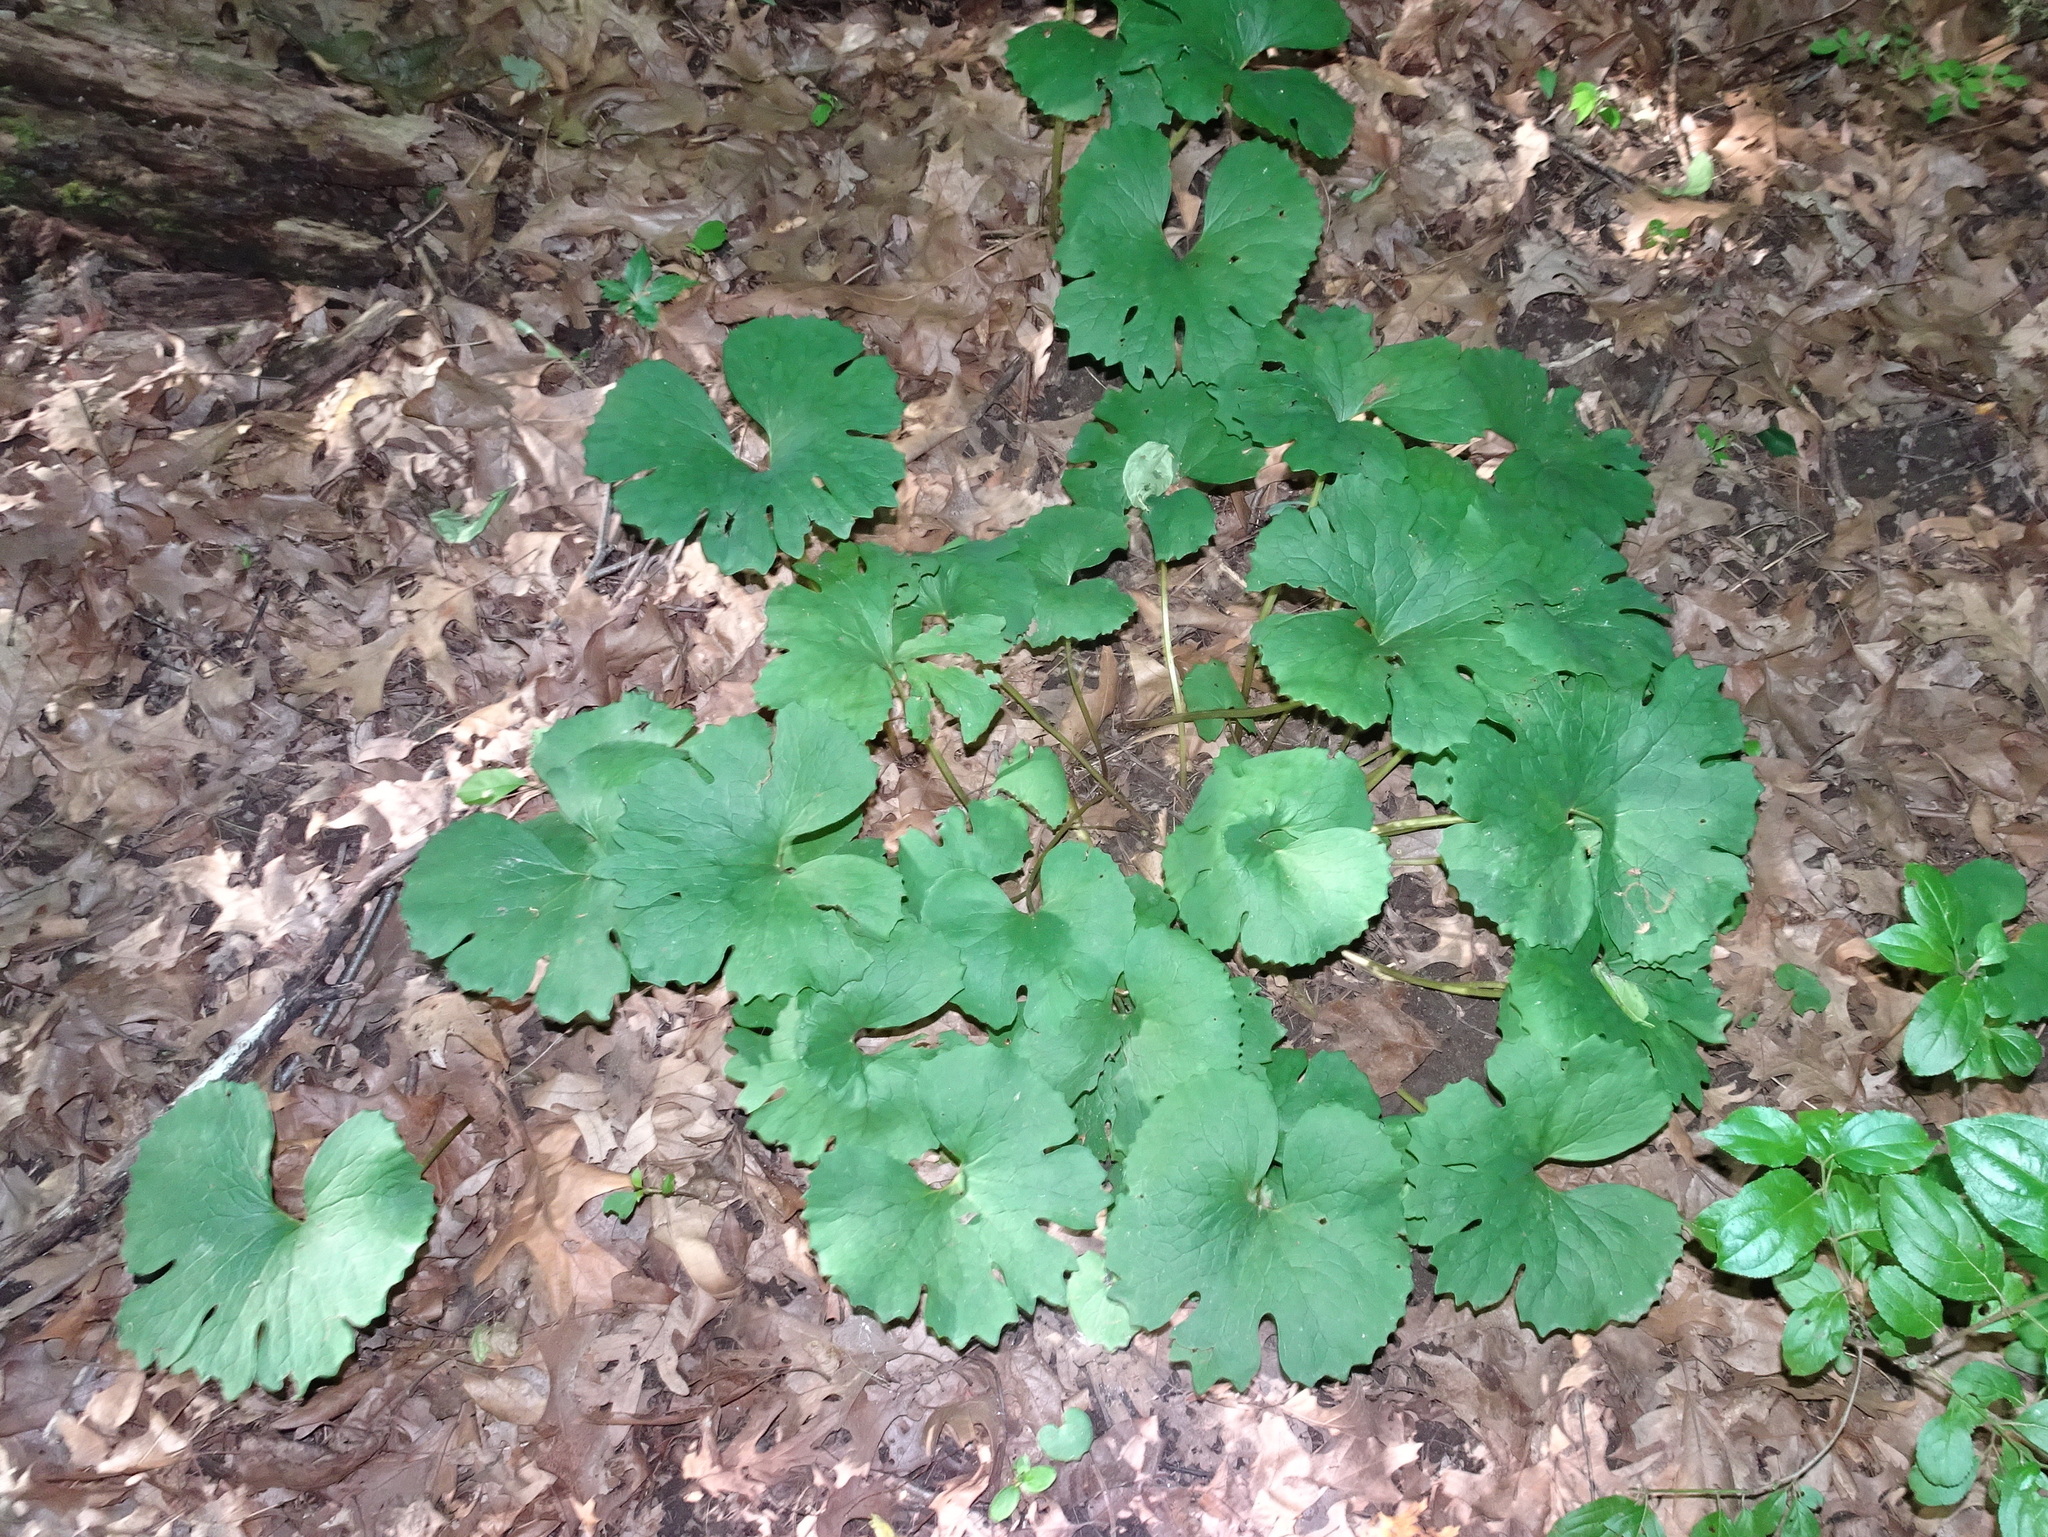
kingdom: Plantae
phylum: Tracheophyta
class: Magnoliopsida
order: Ranunculales
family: Papaveraceae
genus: Sanguinaria
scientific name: Sanguinaria canadensis
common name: Bloodroot
